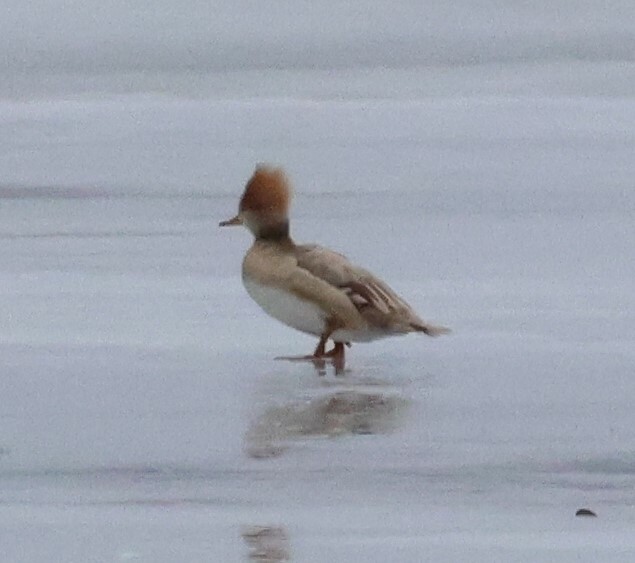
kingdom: Animalia
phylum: Chordata
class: Aves
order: Anseriformes
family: Anatidae
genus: Lophodytes
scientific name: Lophodytes cucullatus
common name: Hooded merganser
